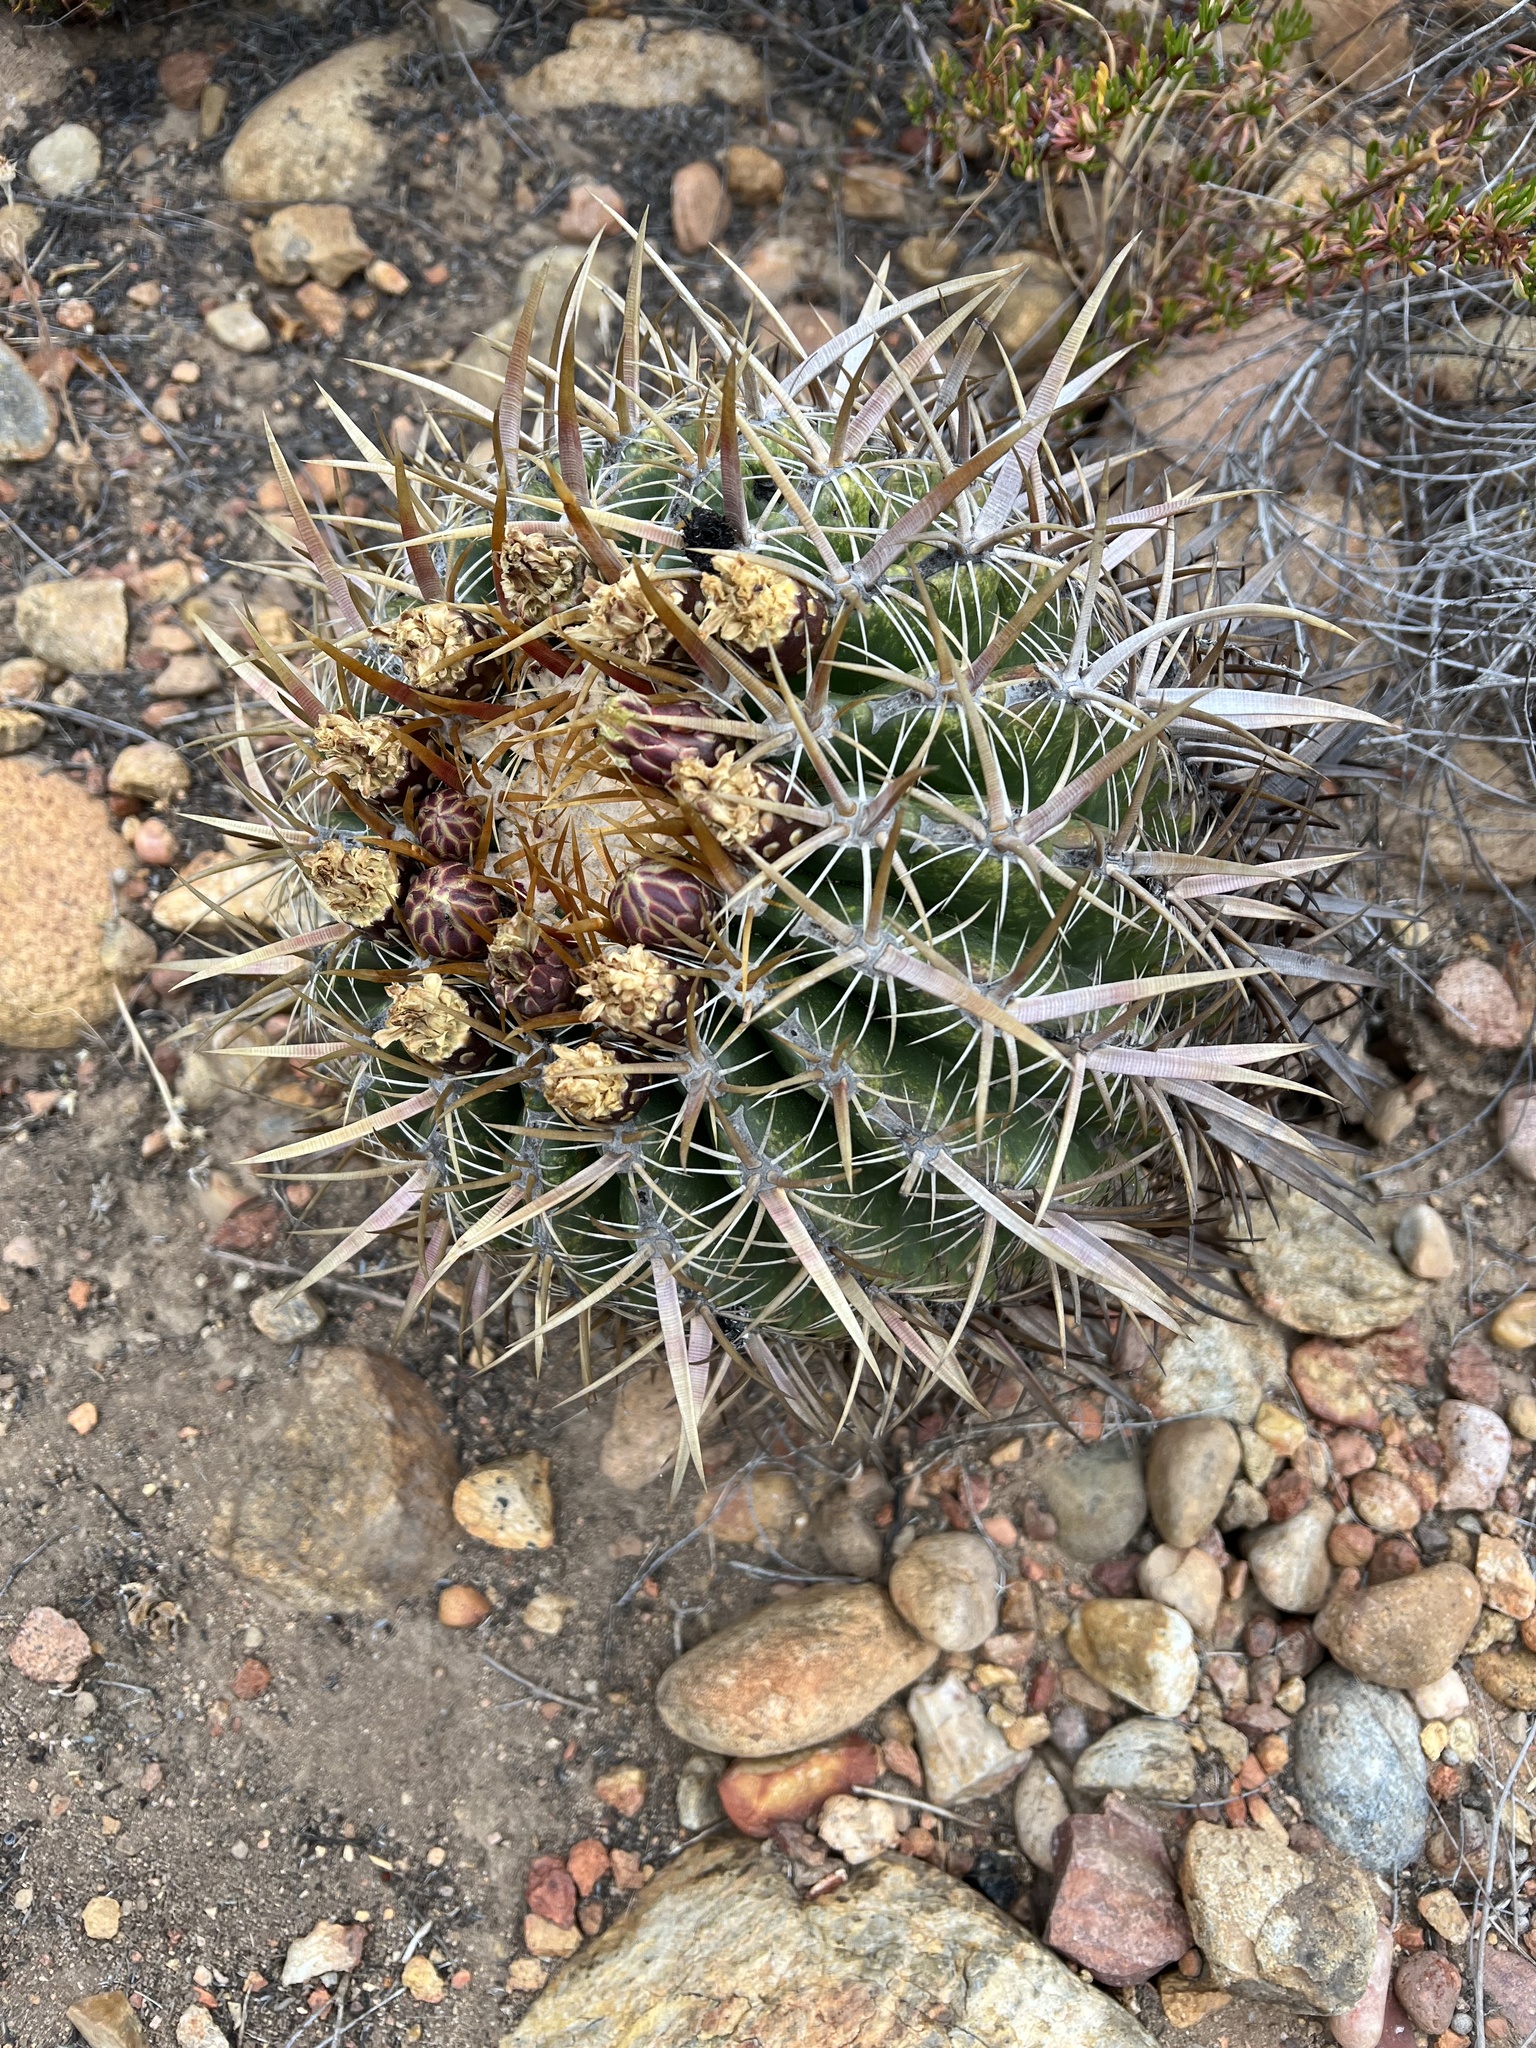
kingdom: Plantae
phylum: Tracheophyta
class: Magnoliopsida
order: Caryophyllales
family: Cactaceae
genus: Ferocactus
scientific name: Ferocactus viridescens
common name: San diego barrel cactus
